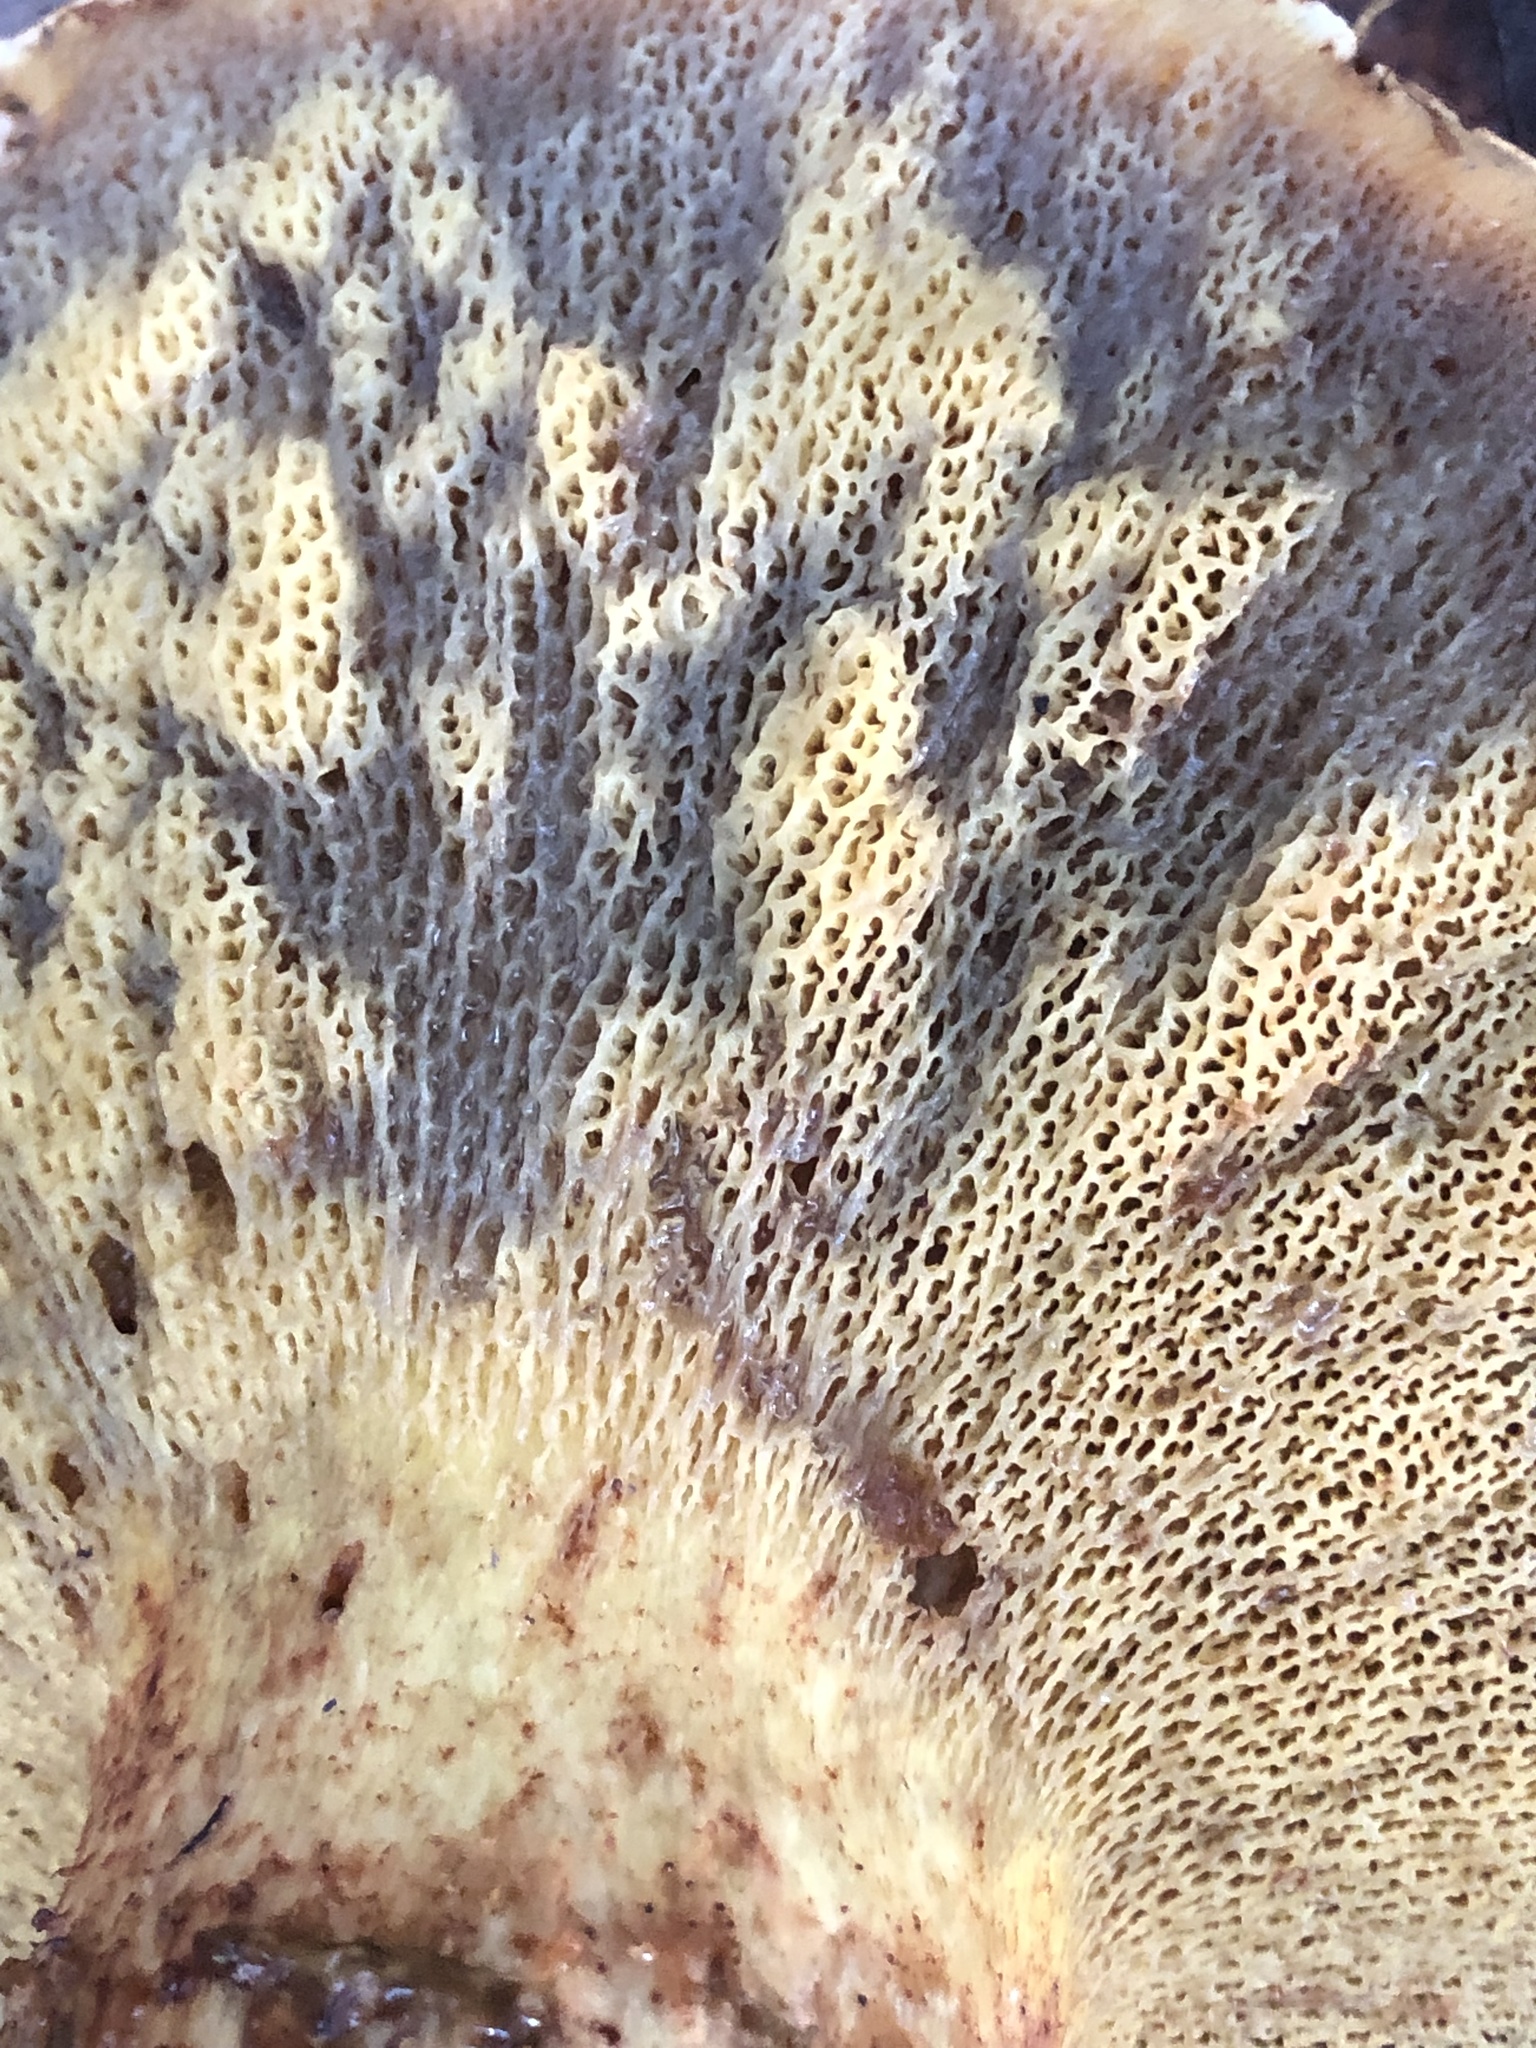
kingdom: Fungi
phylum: Basidiomycota
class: Agaricomycetes
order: Boletales
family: Suillaceae
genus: Suillus
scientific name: Suillus caerulescens
